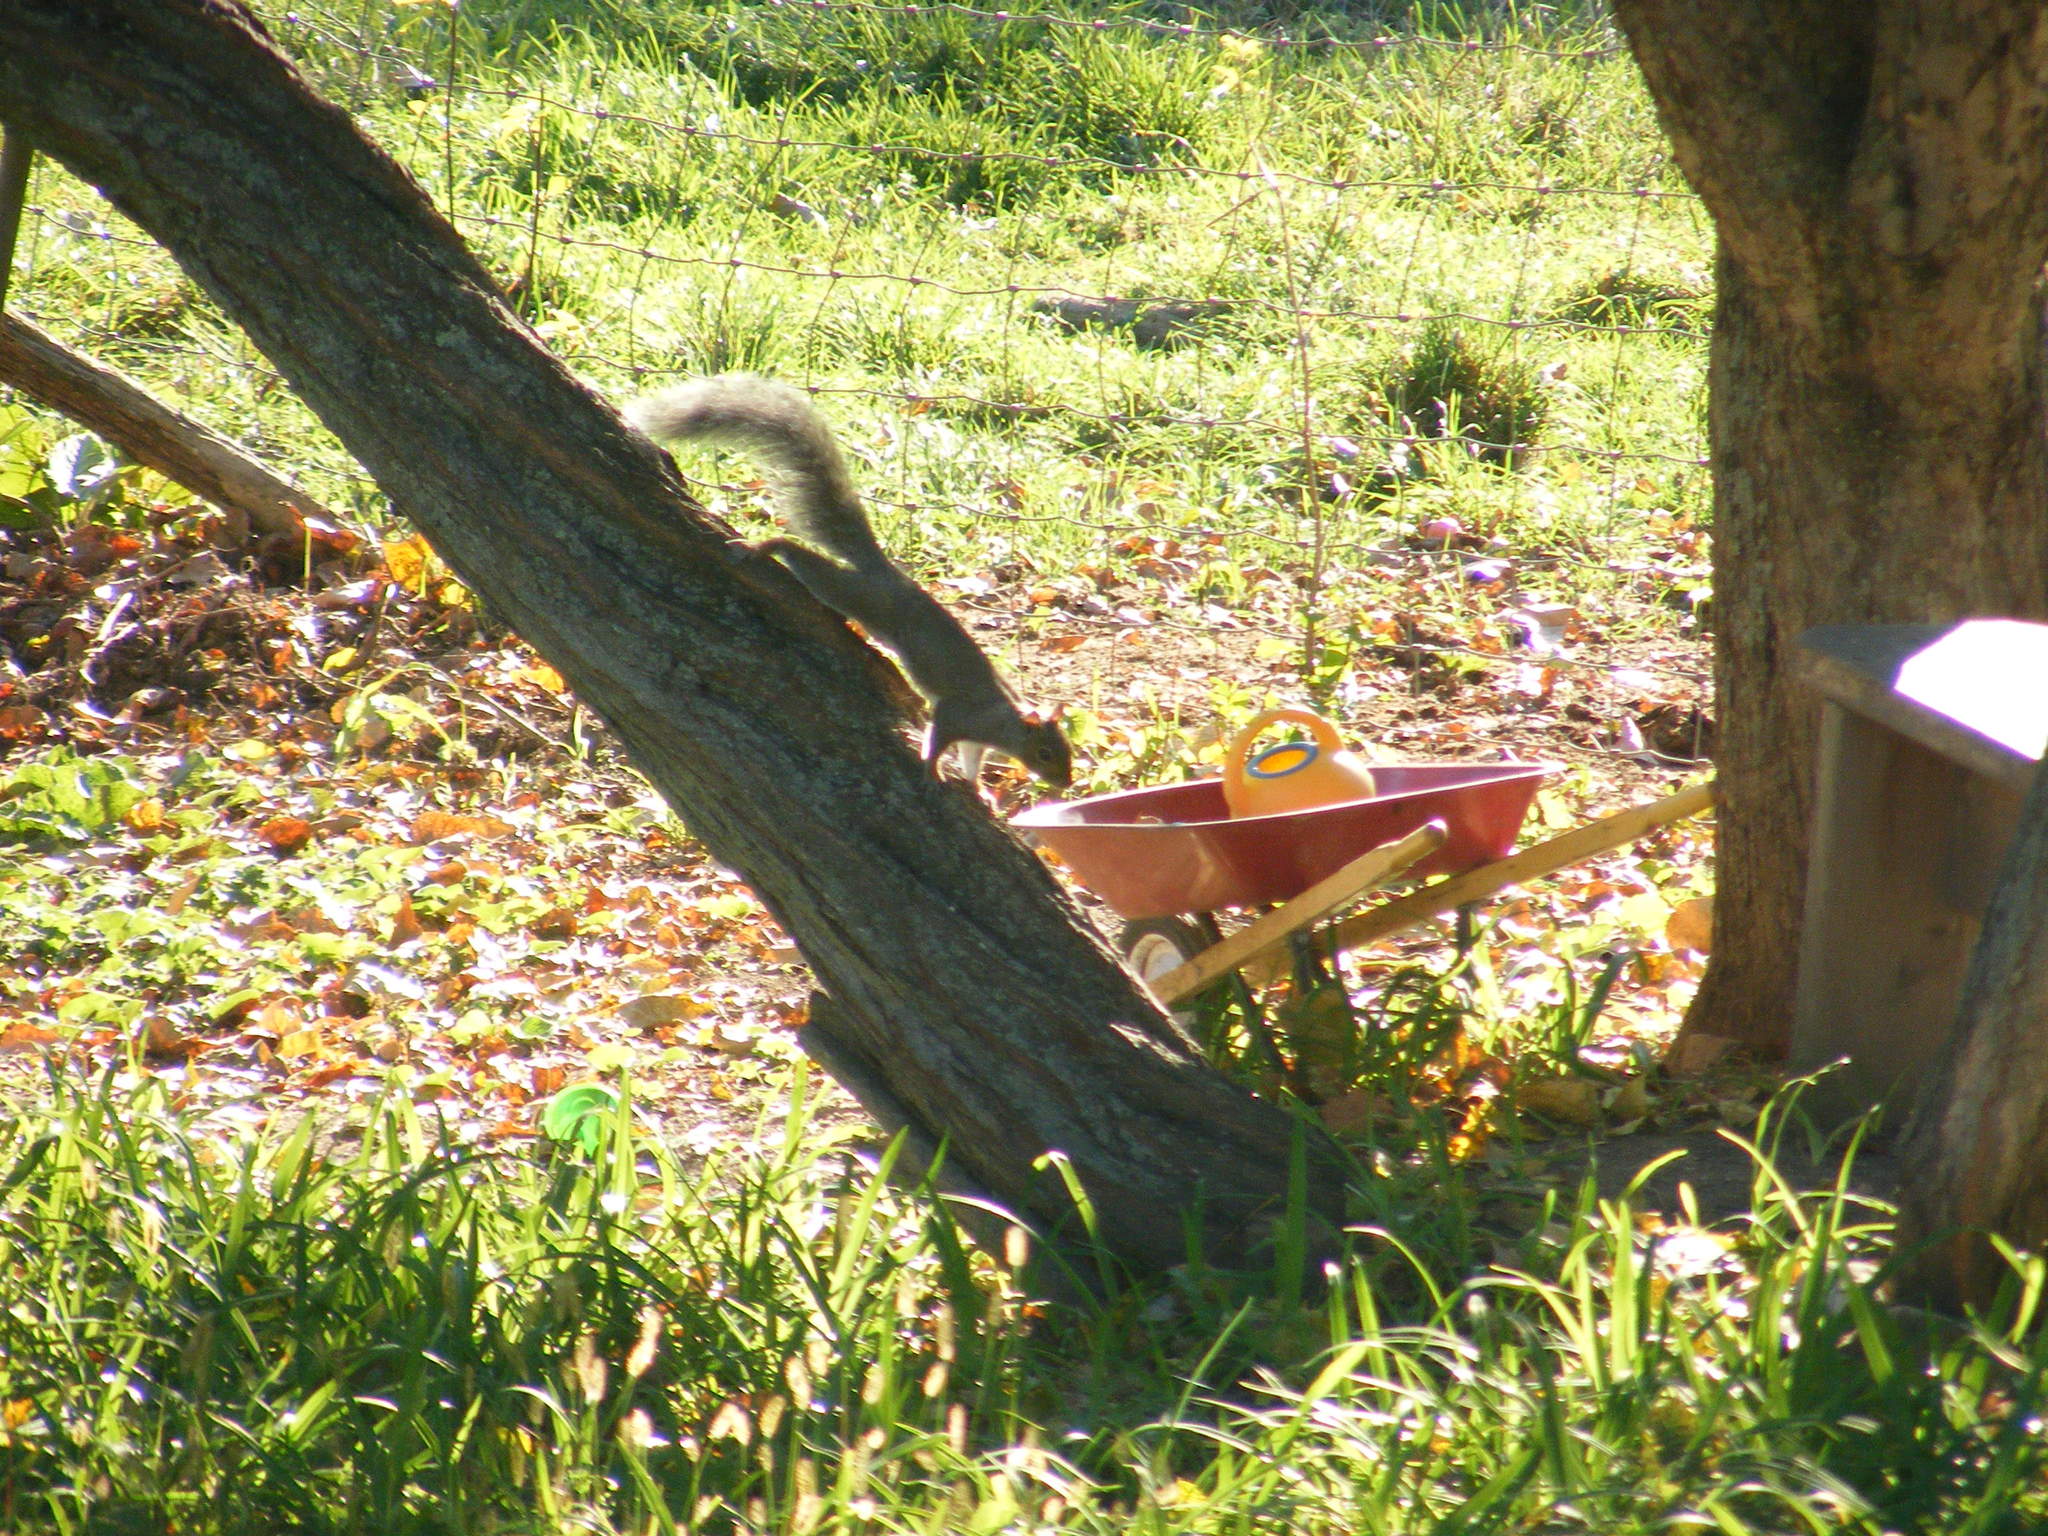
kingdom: Animalia
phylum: Chordata
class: Mammalia
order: Rodentia
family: Sciuridae
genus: Sciurus
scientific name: Sciurus carolinensis
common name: Eastern gray squirrel
